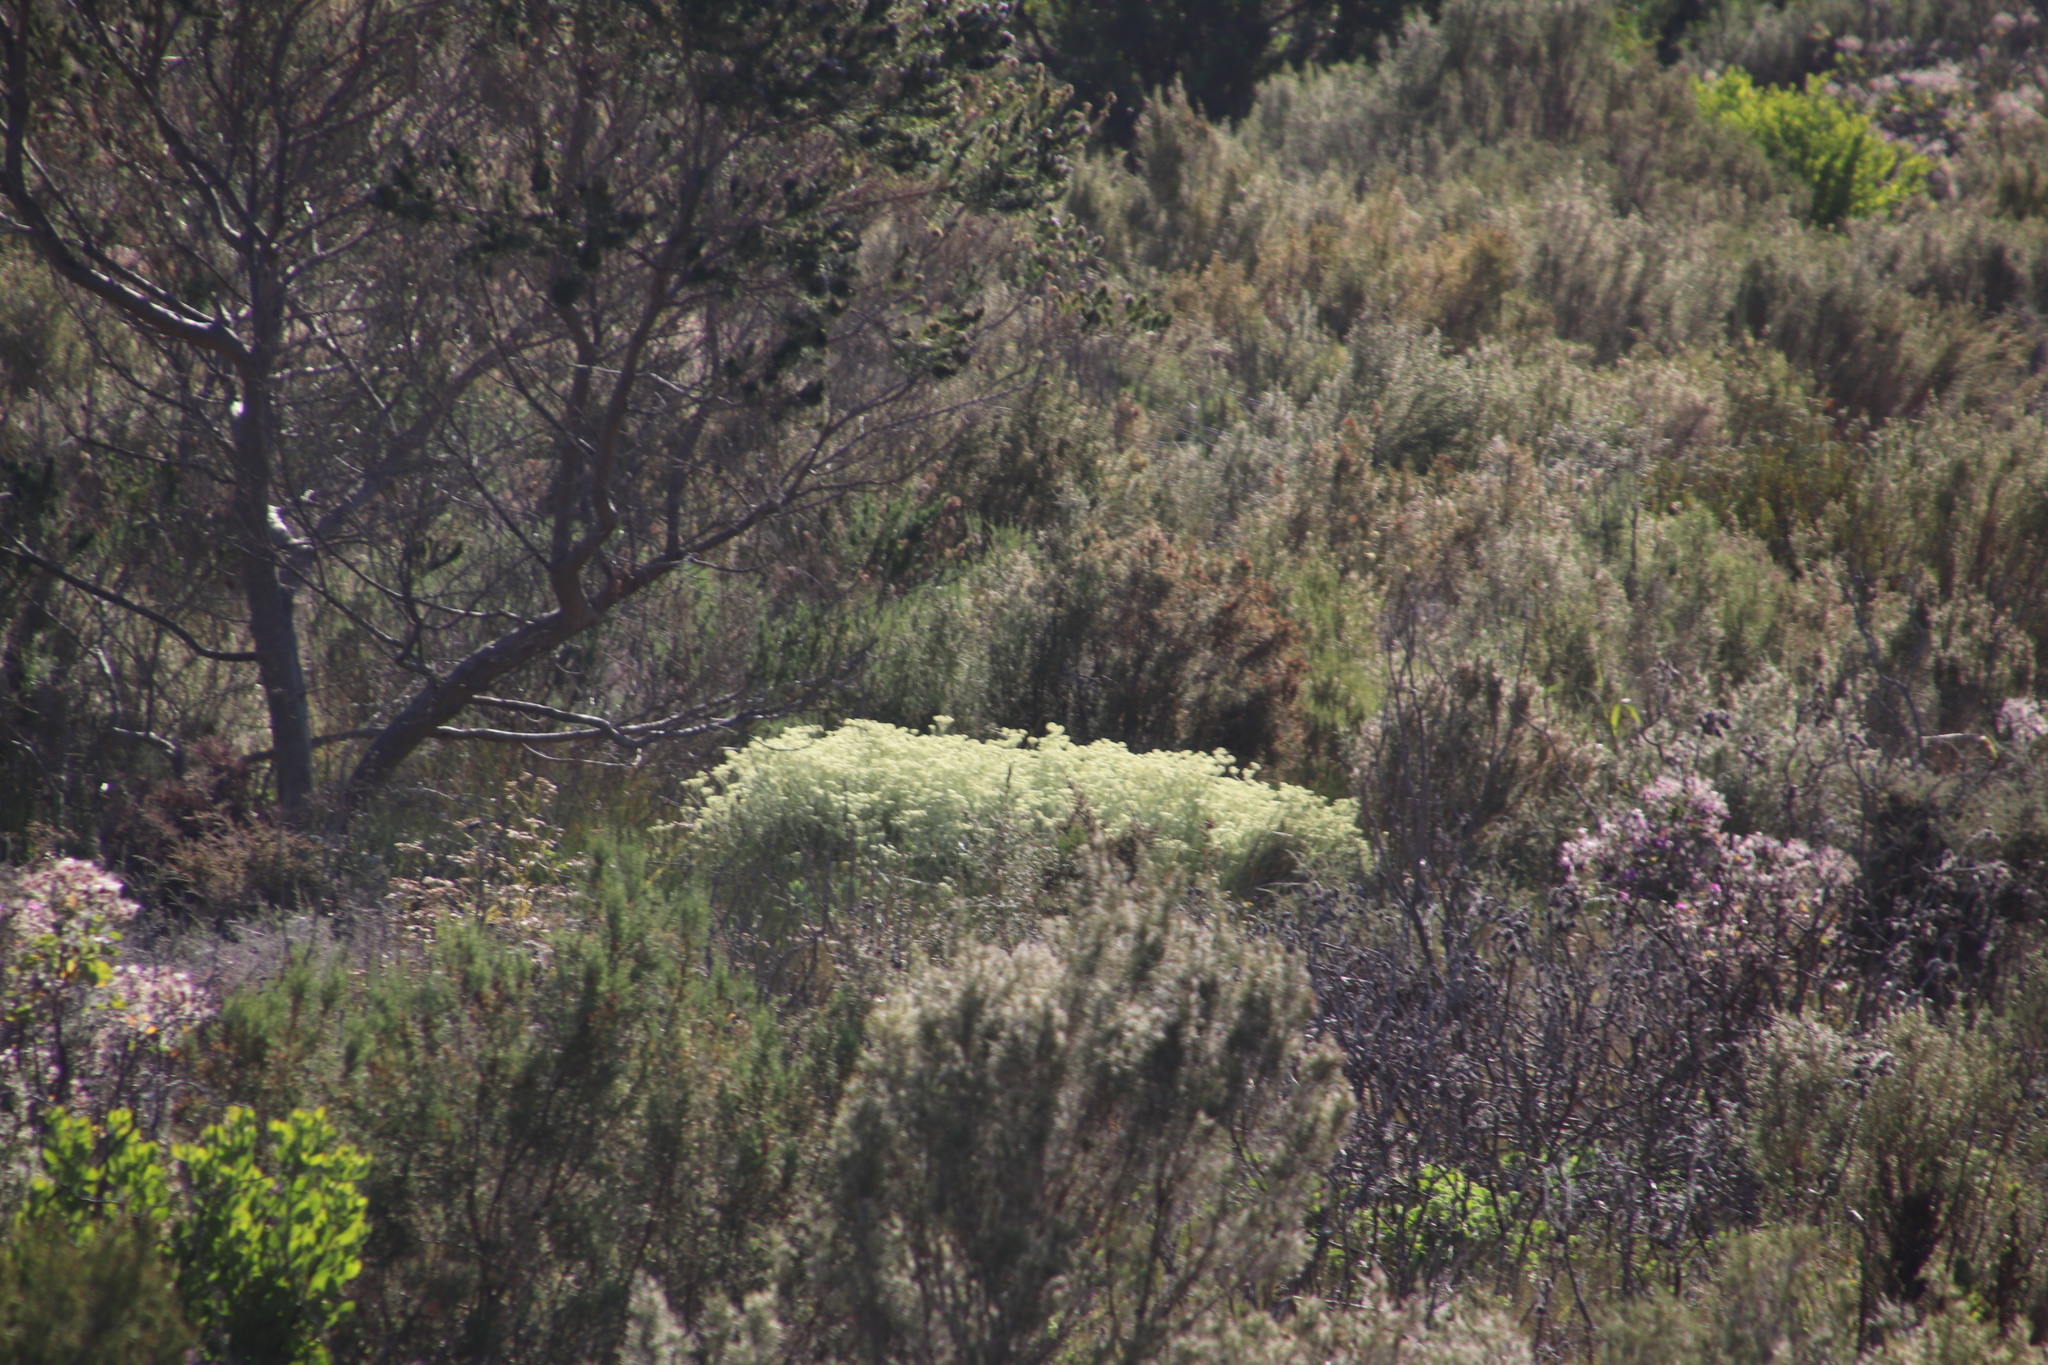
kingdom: Plantae
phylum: Tracheophyta
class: Magnoliopsida
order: Asterales
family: Asteraceae
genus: Helichrysum
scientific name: Helichrysum pandurifolium
